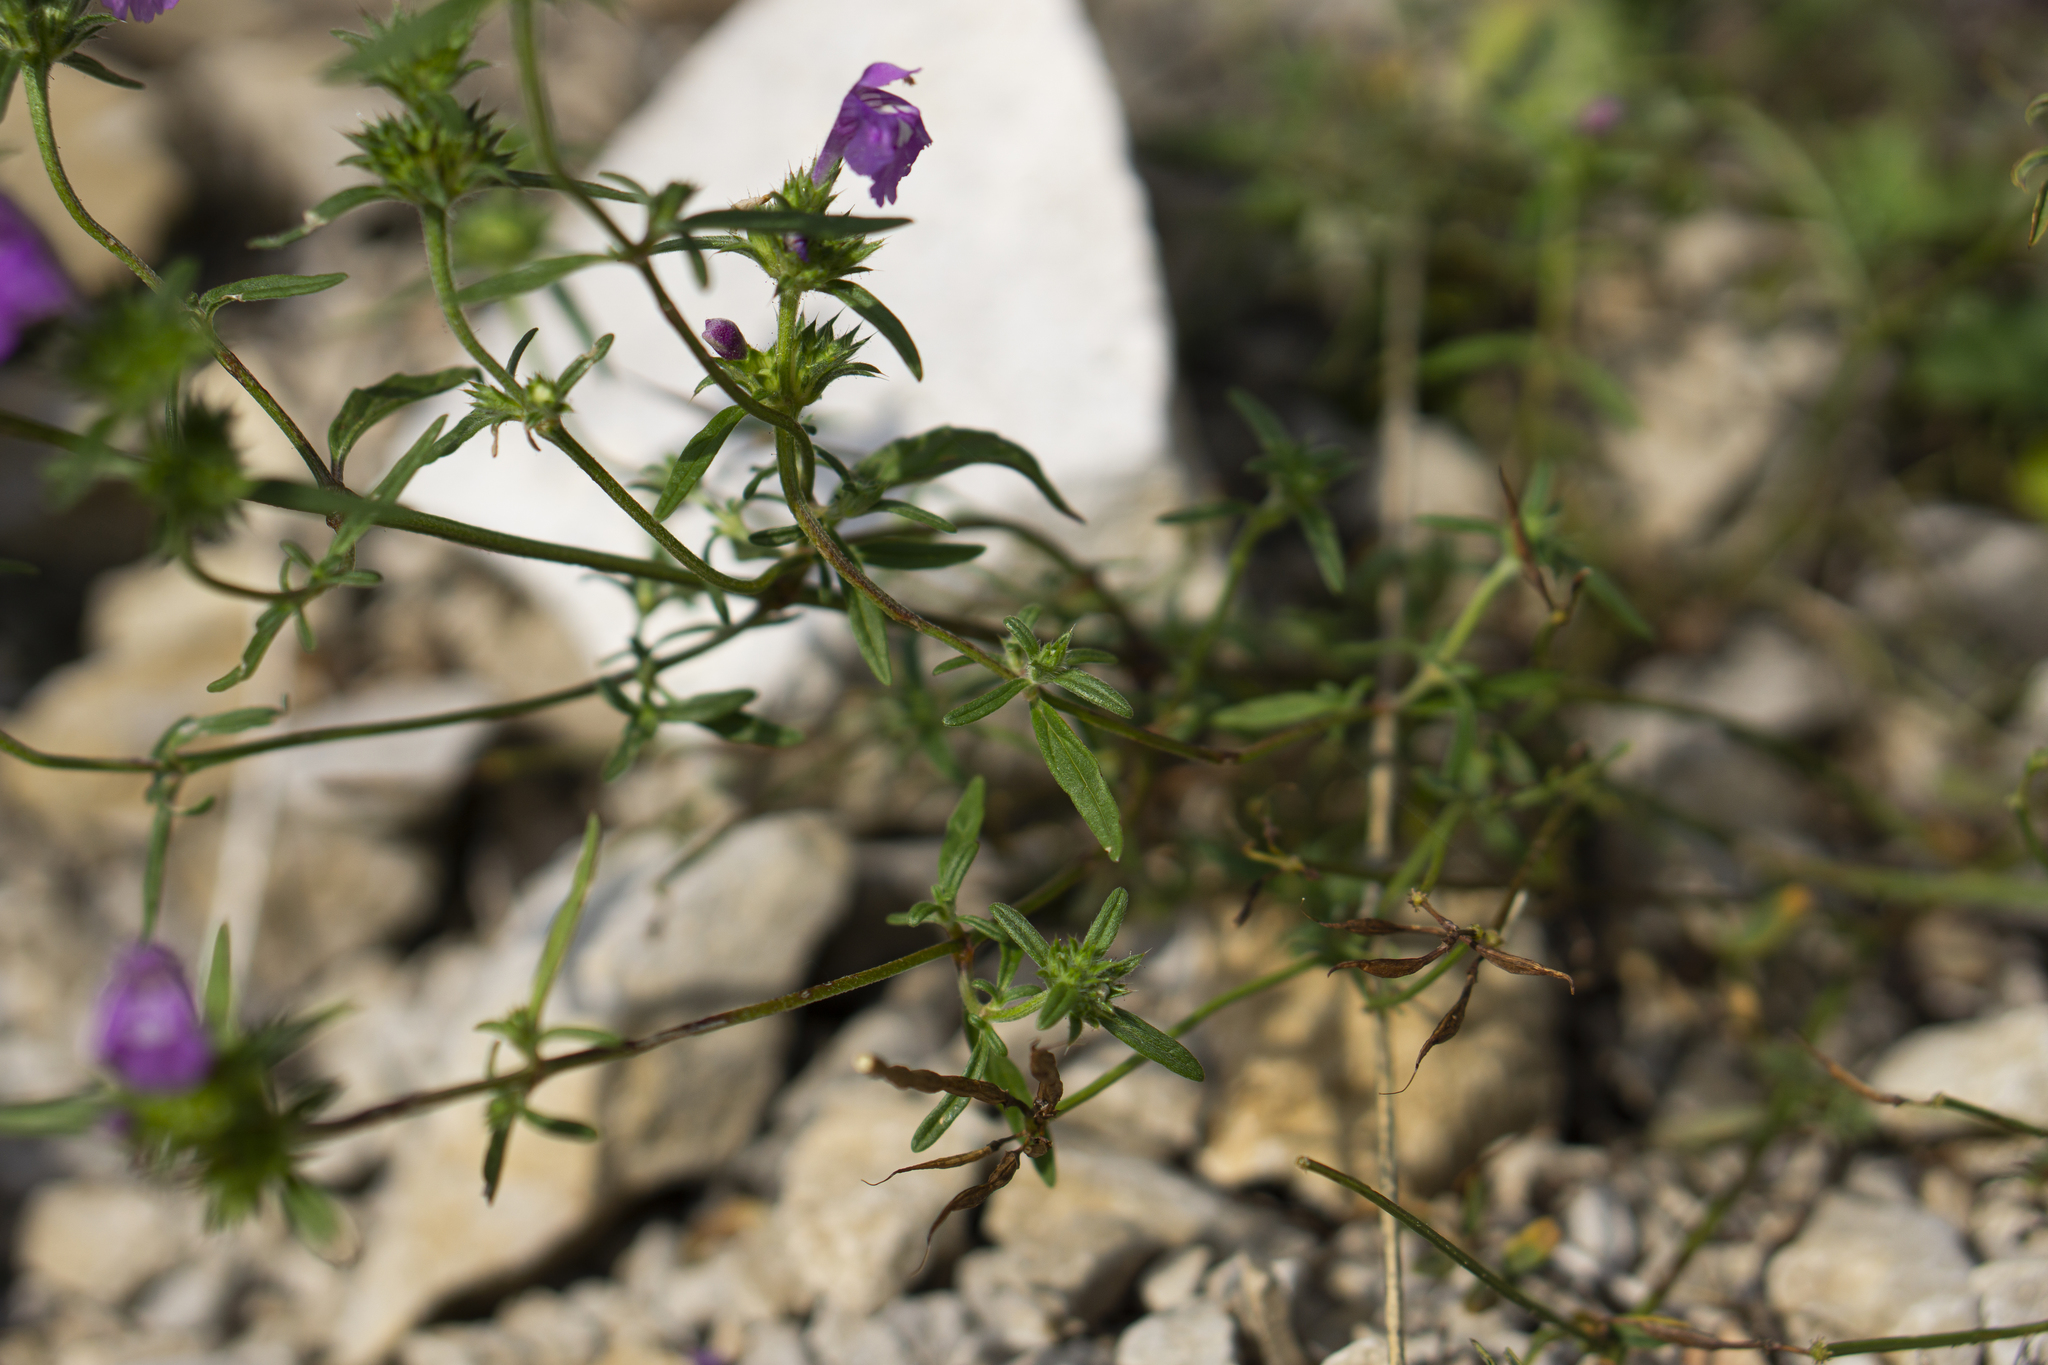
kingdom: Plantae
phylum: Tracheophyta
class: Magnoliopsida
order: Lamiales
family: Lamiaceae
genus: Galeopsis
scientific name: Galeopsis angustifolia
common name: Red hemp-nettle
